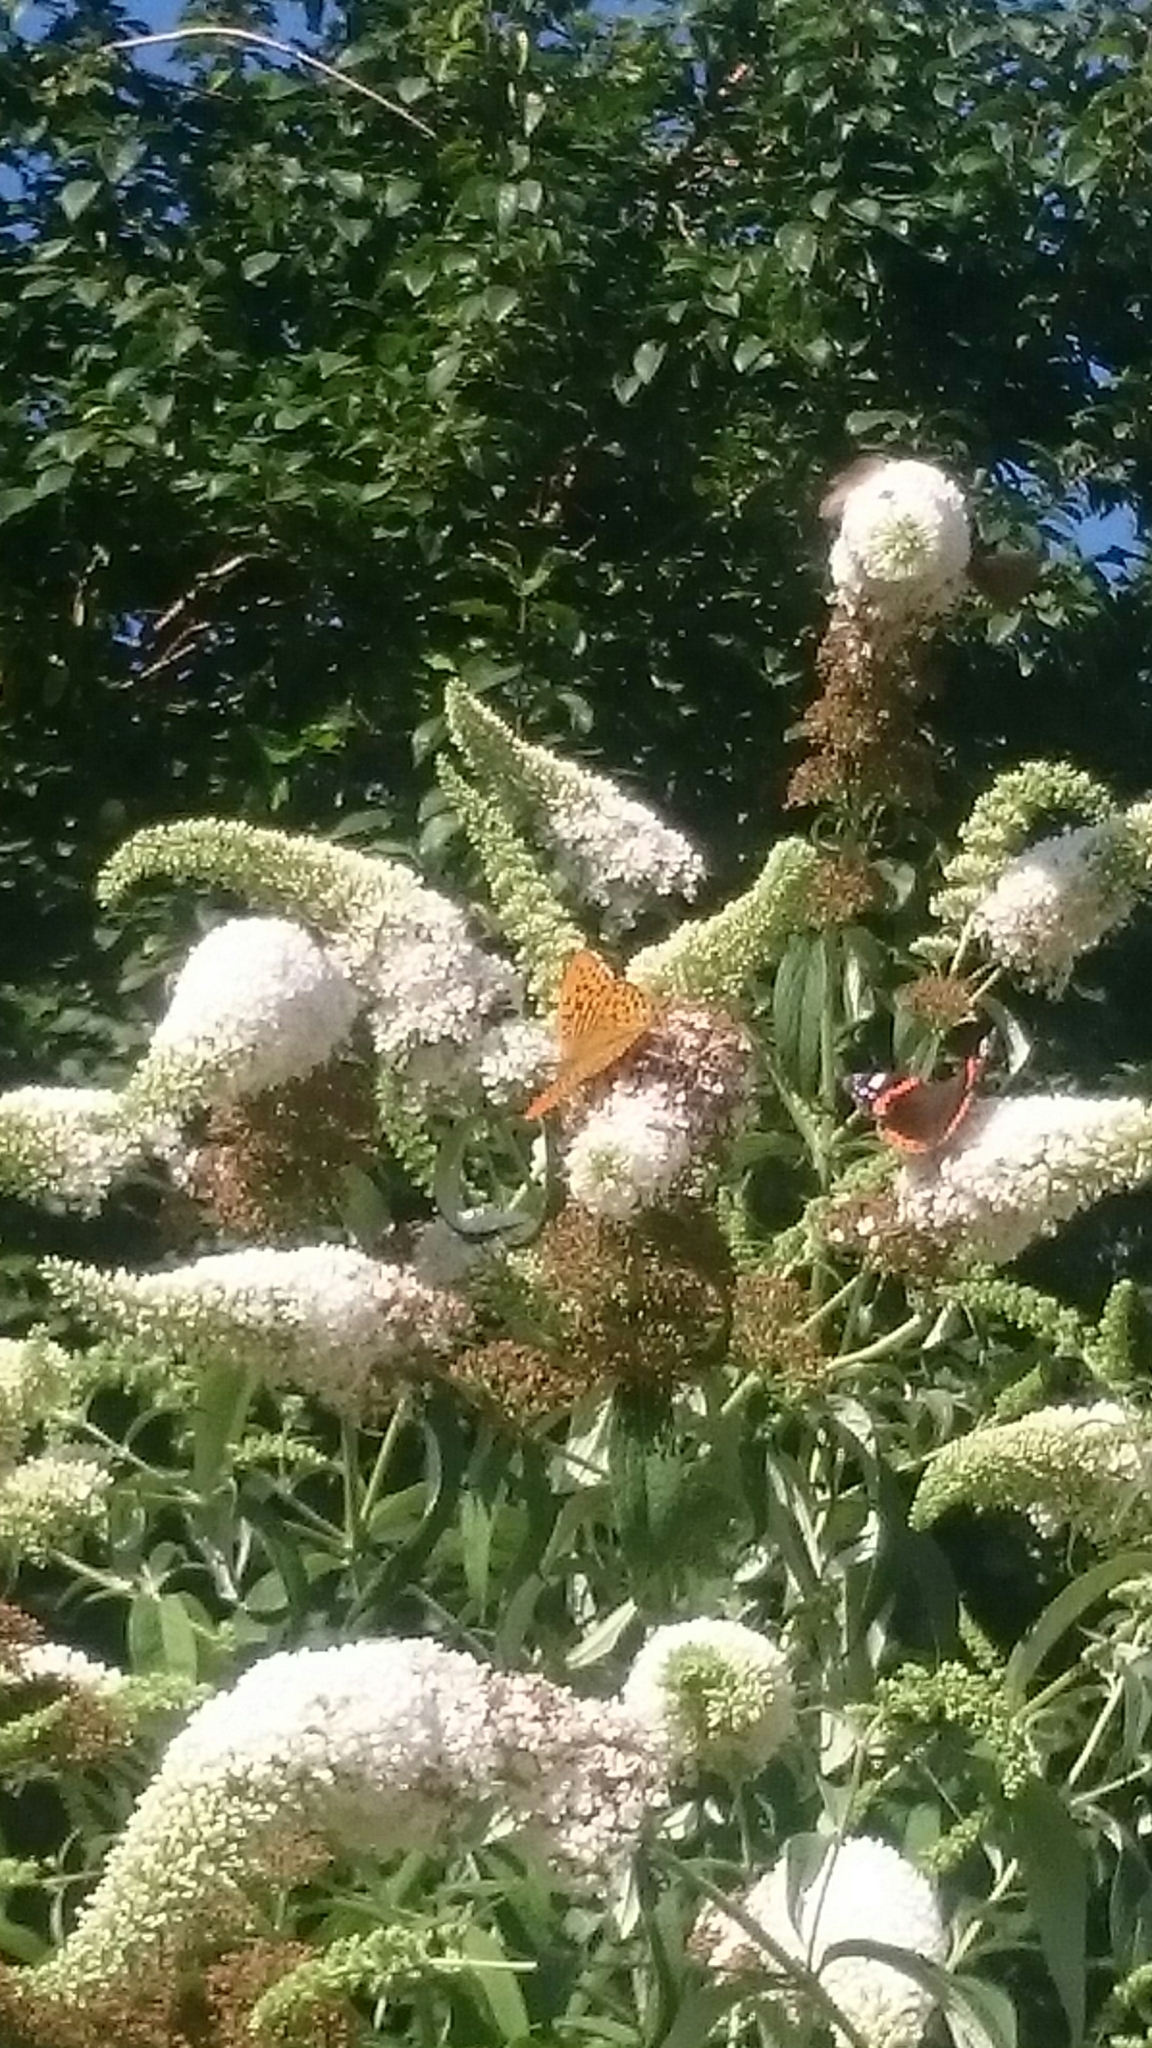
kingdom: Animalia
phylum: Arthropoda
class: Insecta
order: Lepidoptera
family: Nymphalidae
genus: Argynnis
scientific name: Argynnis paphia
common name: Silver-washed fritillary
